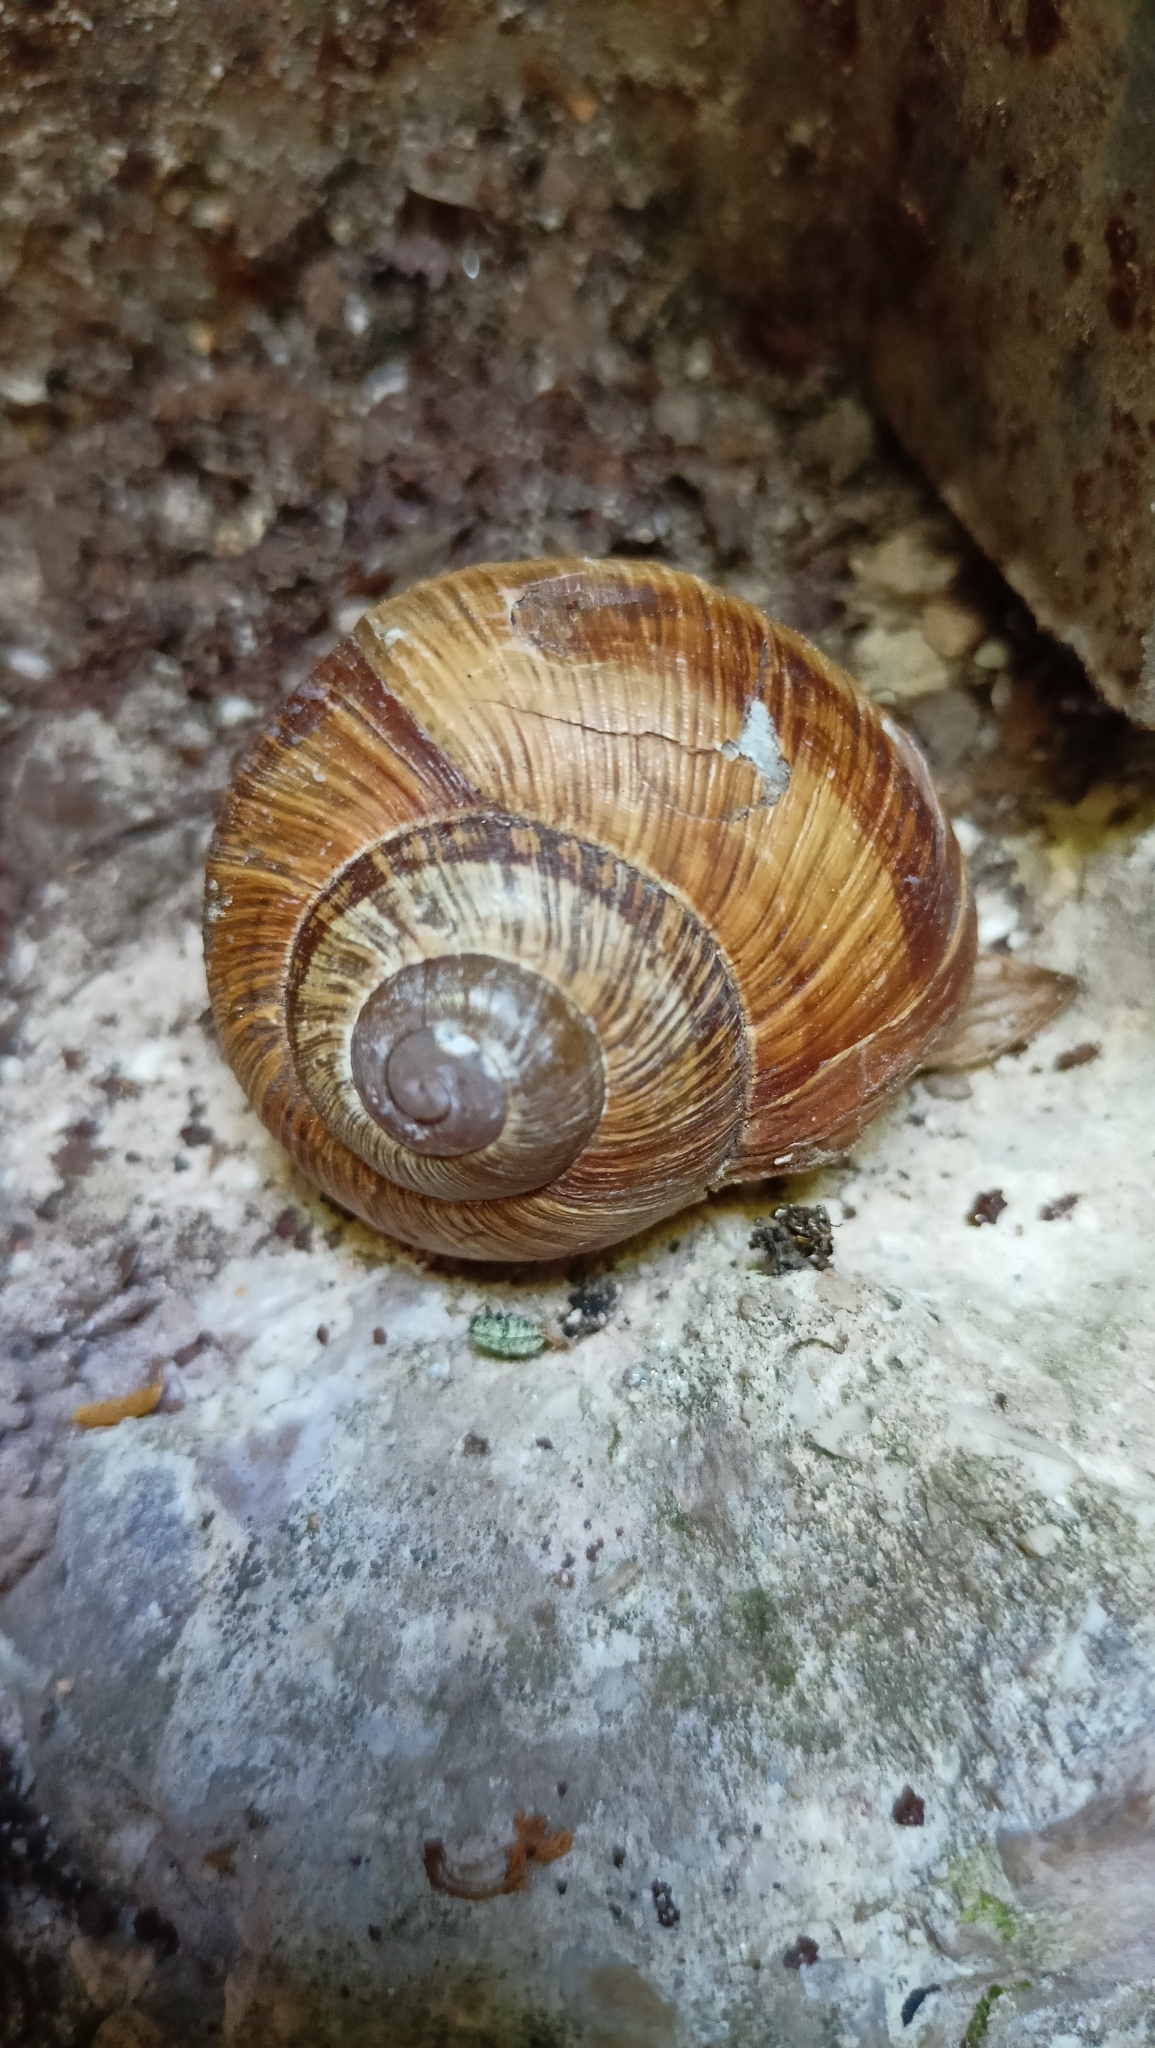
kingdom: Animalia
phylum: Mollusca
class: Gastropoda
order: Stylommatophora
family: Helicidae
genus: Helix
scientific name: Helix pomatia
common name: Roman snail
